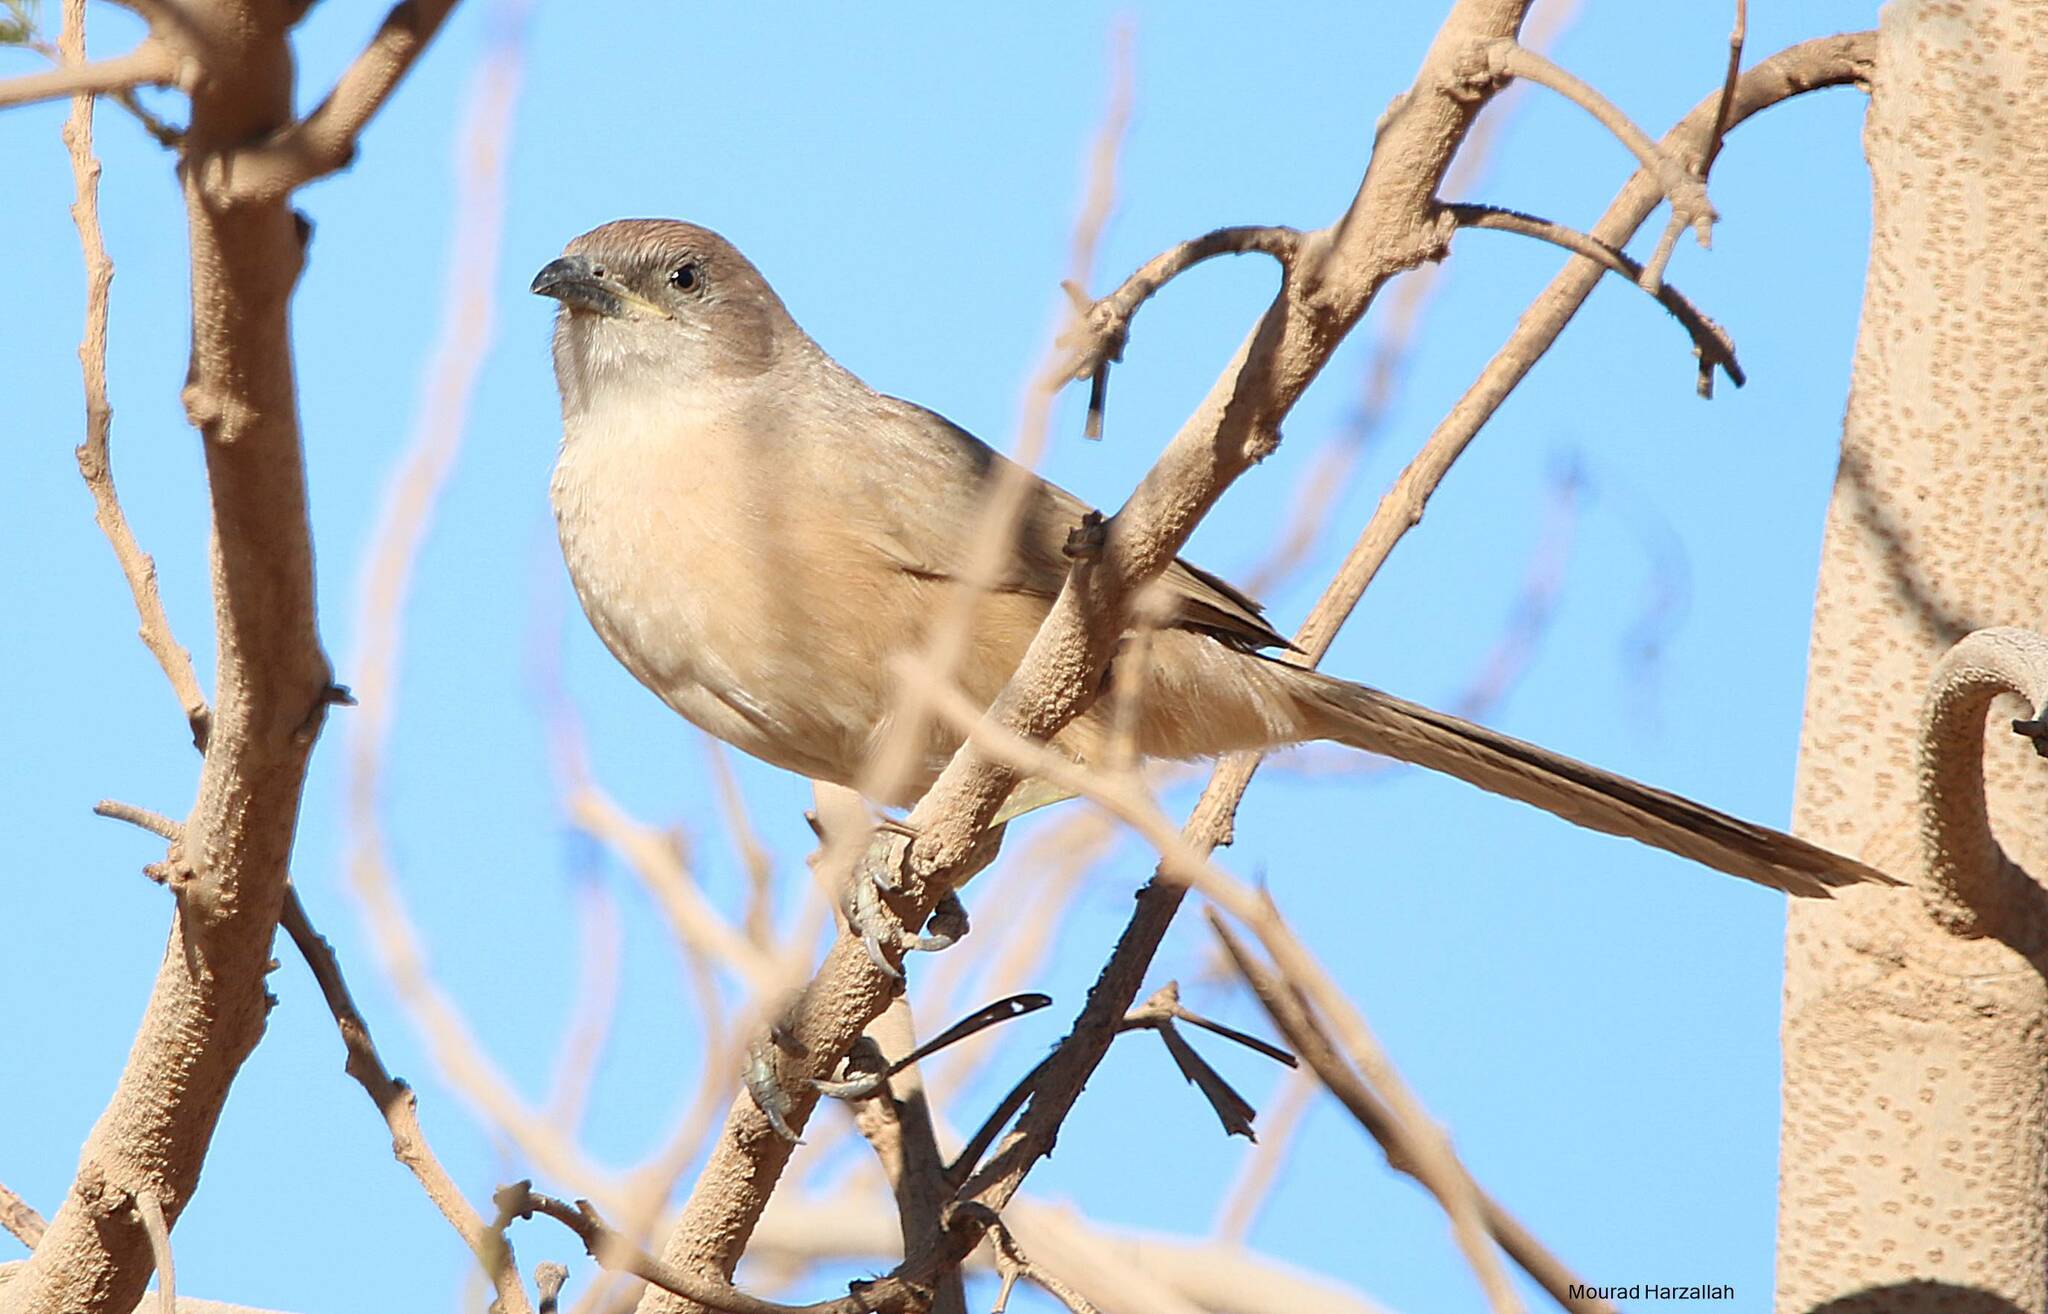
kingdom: Animalia
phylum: Chordata
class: Aves
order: Passeriformes
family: Leiothrichidae
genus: Turdoides
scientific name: Turdoides fulva
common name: Fulvous babbler
